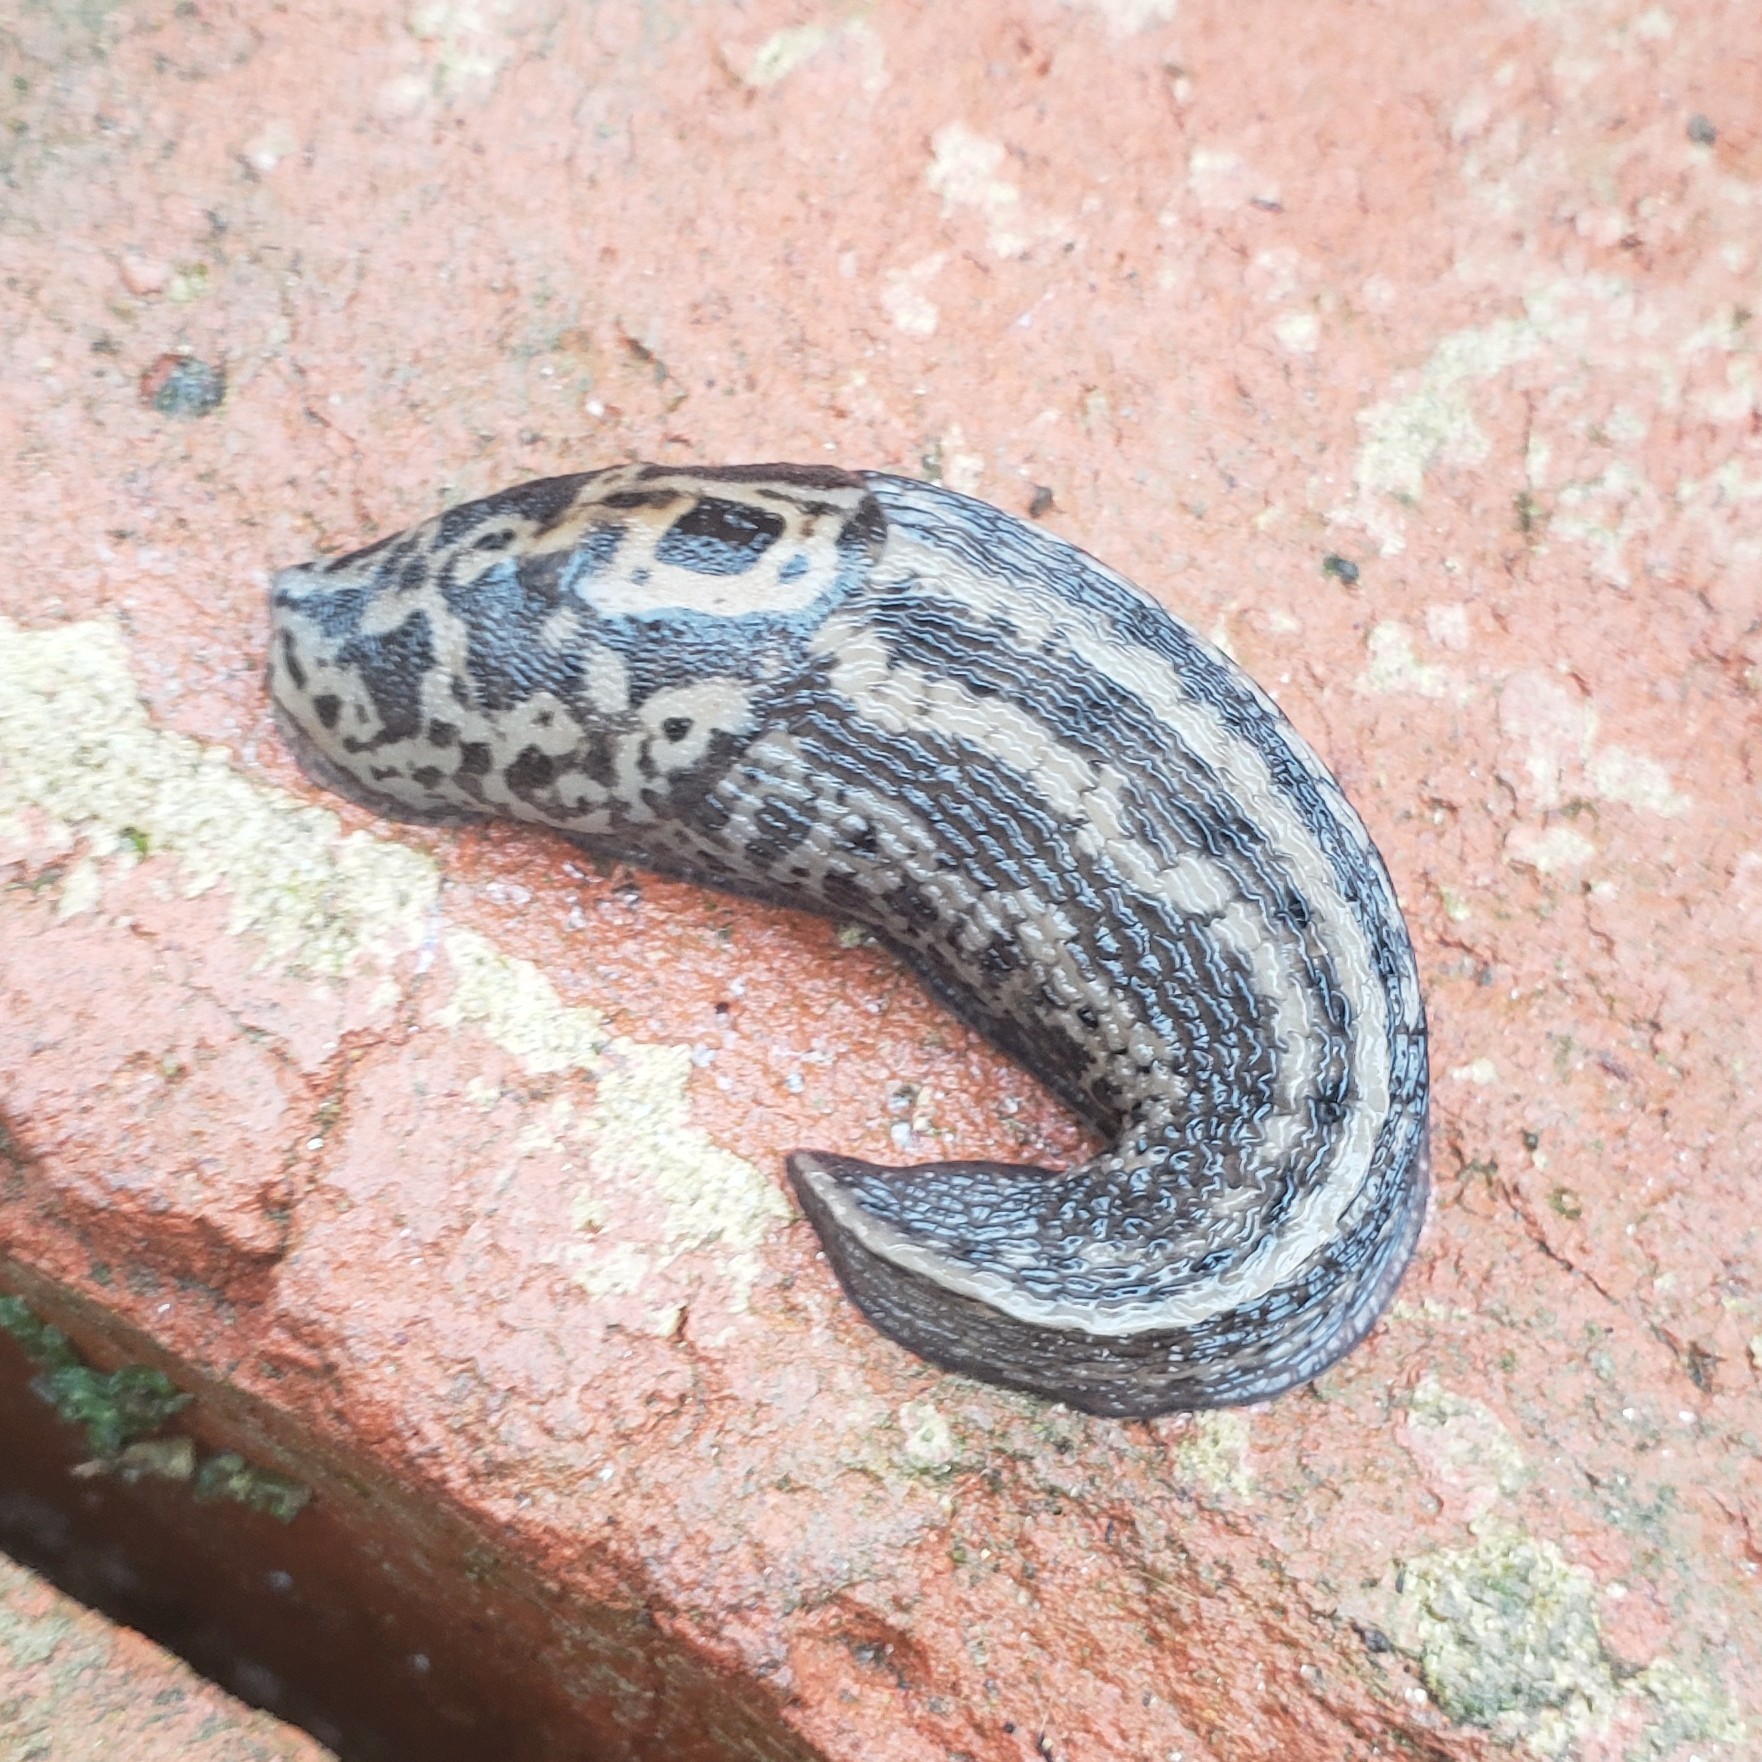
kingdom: Animalia
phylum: Mollusca
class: Gastropoda
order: Stylommatophora
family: Limacidae
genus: Limax
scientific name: Limax maximus
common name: Great grey slug
